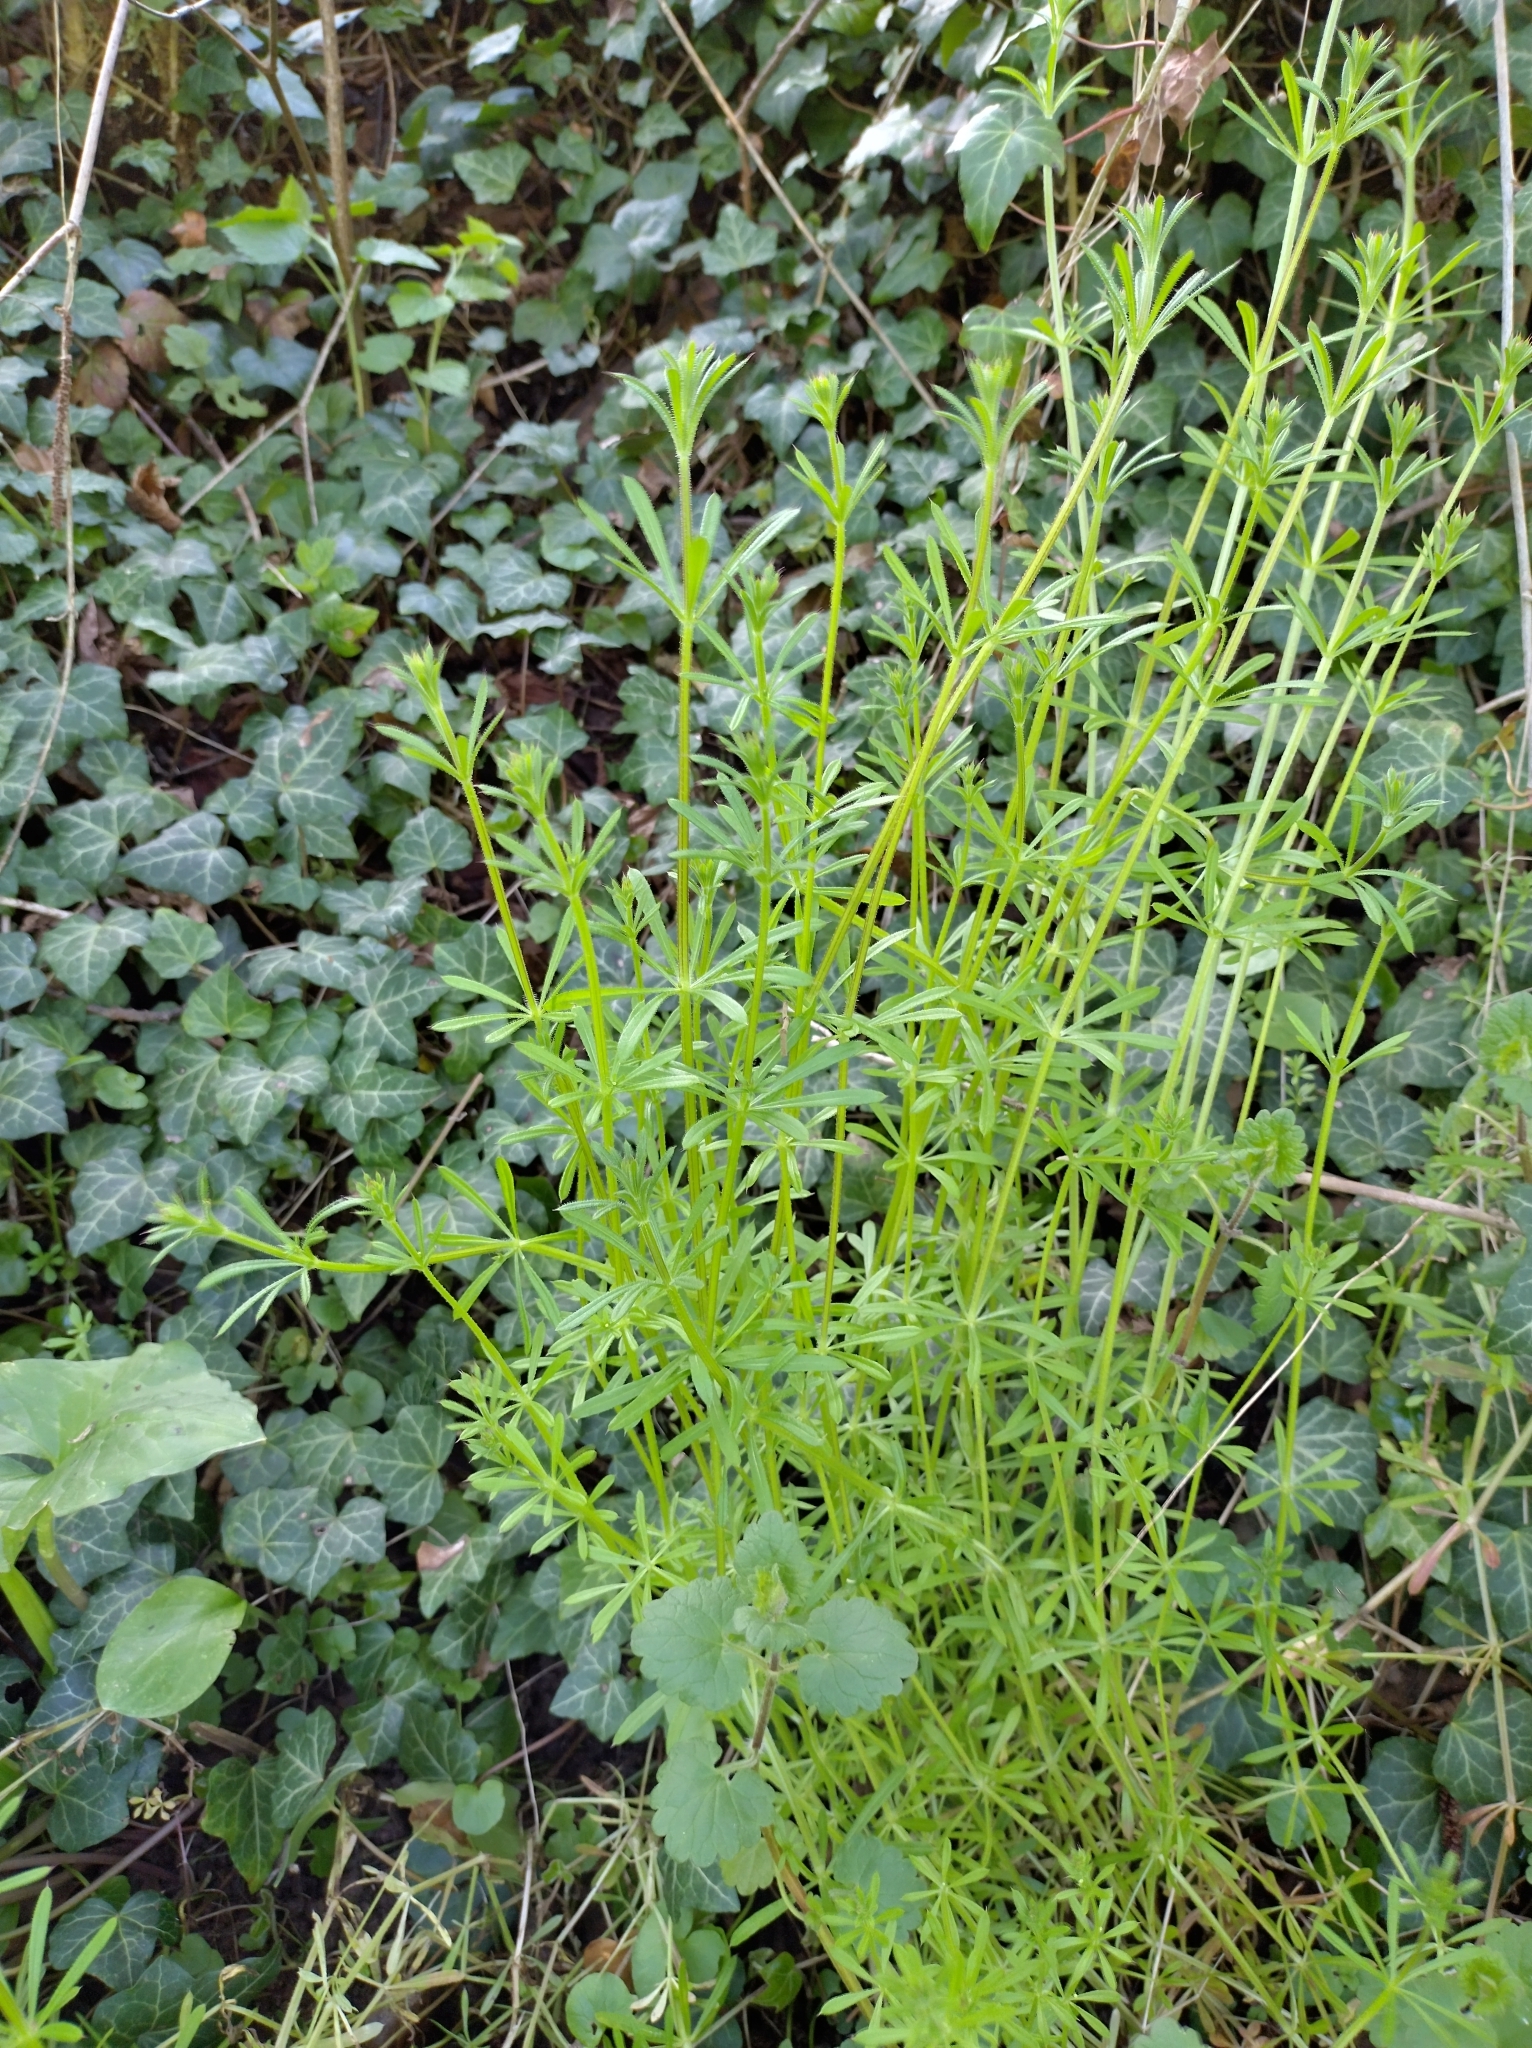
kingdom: Plantae
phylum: Tracheophyta
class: Magnoliopsida
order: Gentianales
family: Rubiaceae
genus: Galium
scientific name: Galium aparine
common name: Cleavers
